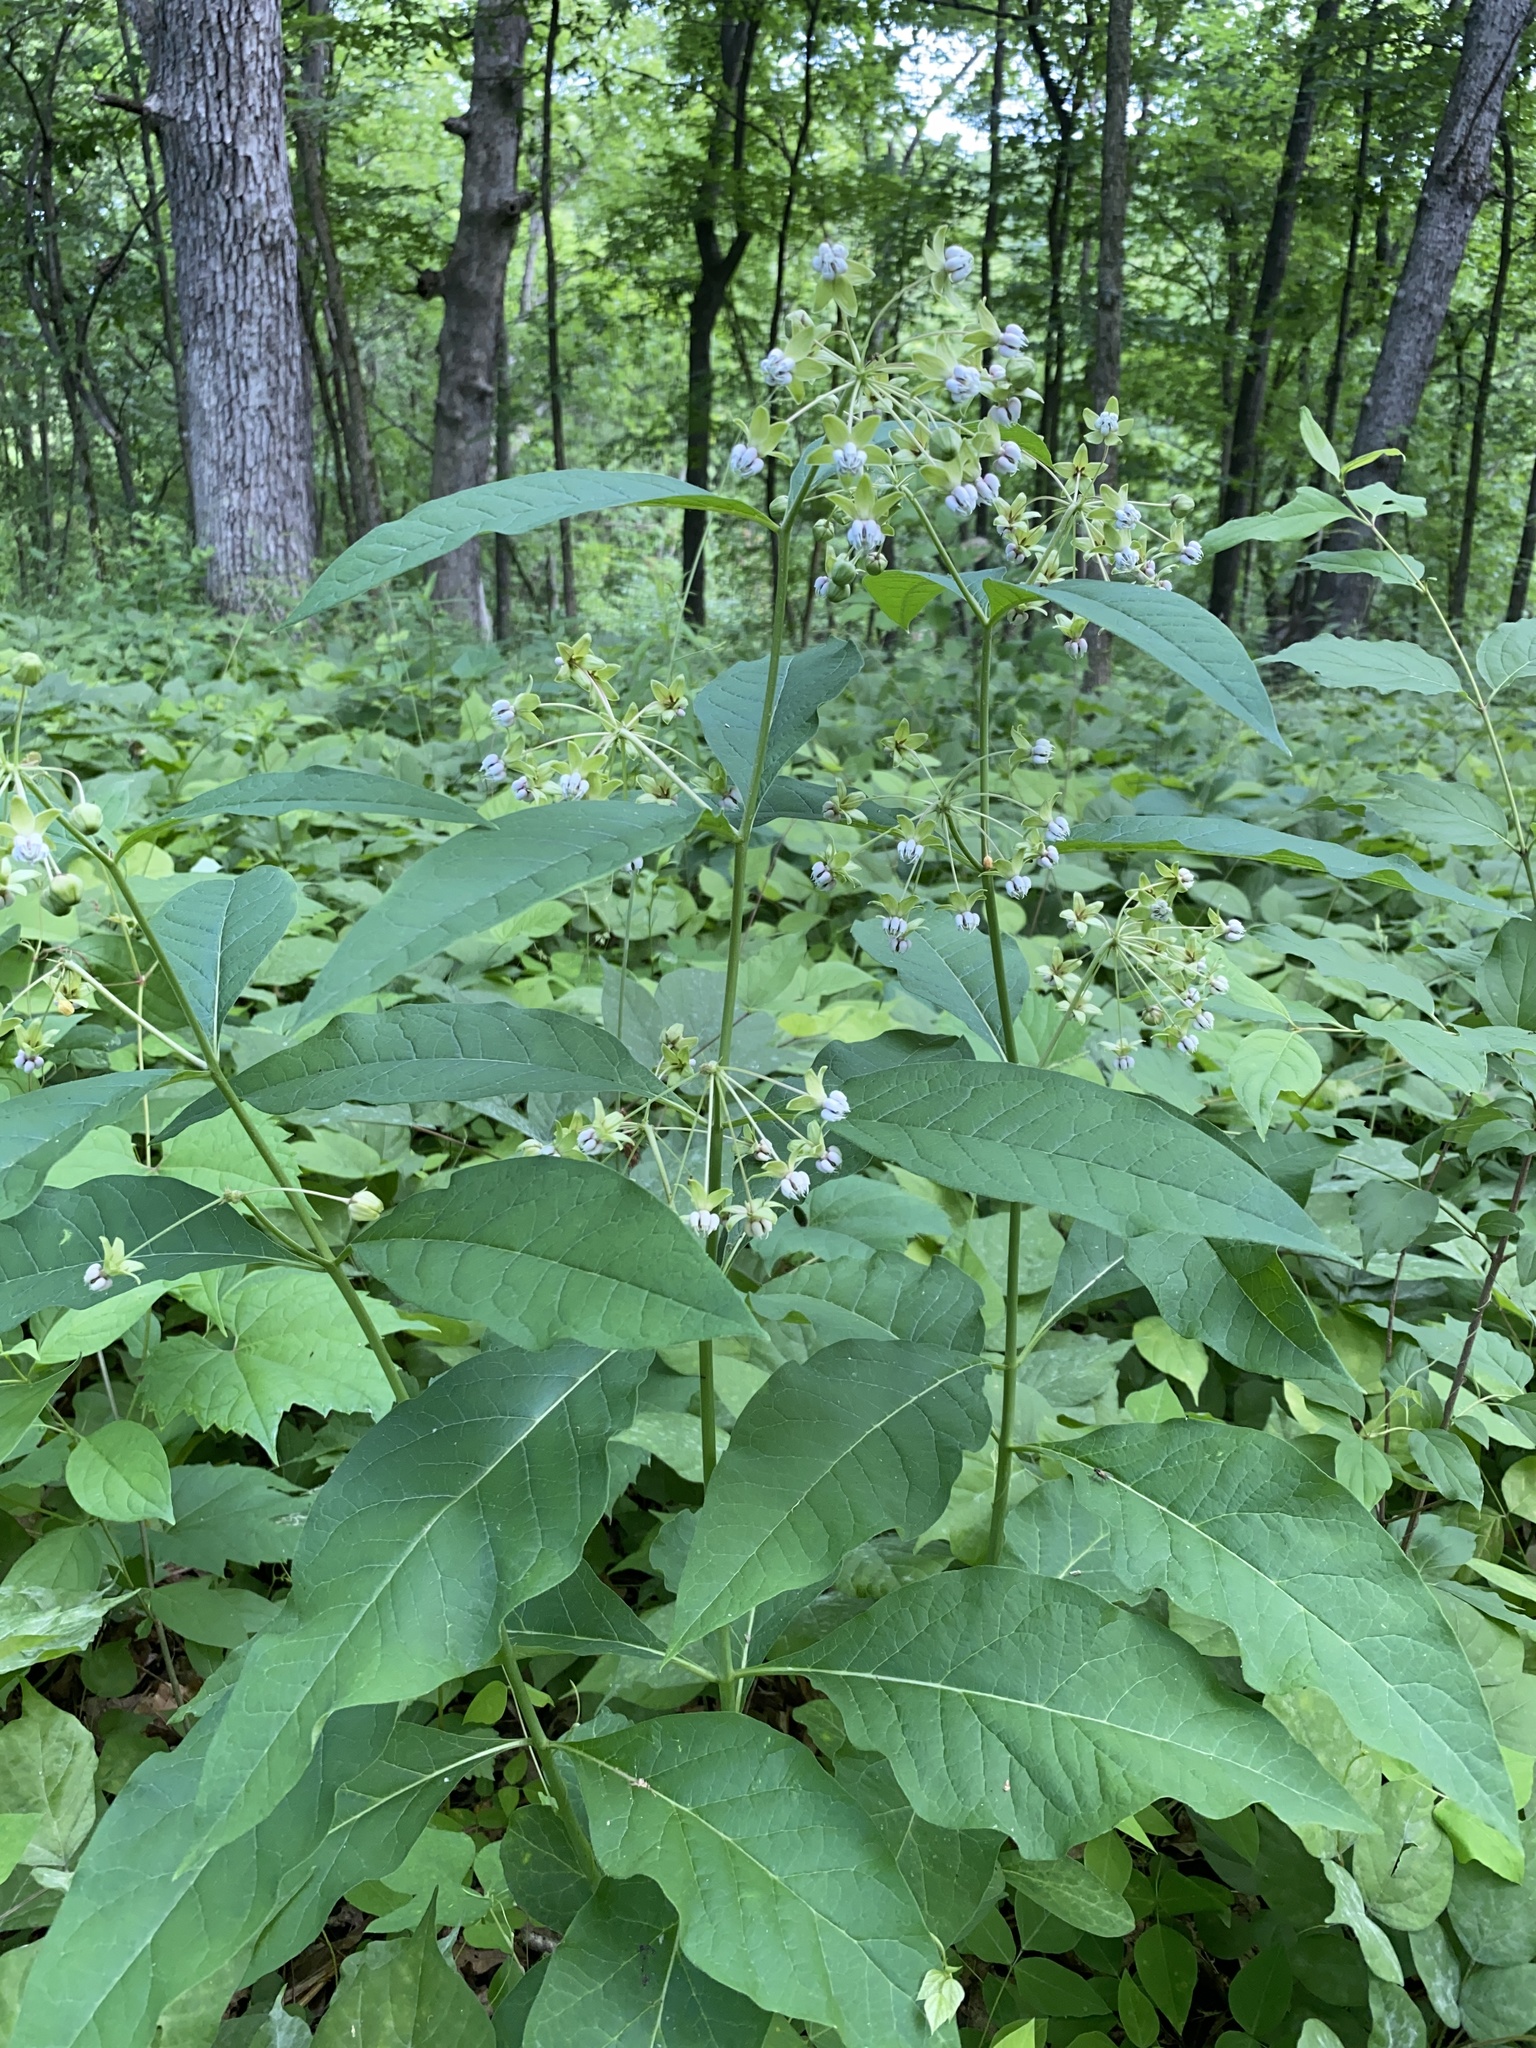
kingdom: Plantae
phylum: Tracheophyta
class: Magnoliopsida
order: Gentianales
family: Apocynaceae
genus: Asclepias
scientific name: Asclepias exaltata
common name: Poke milkweed
